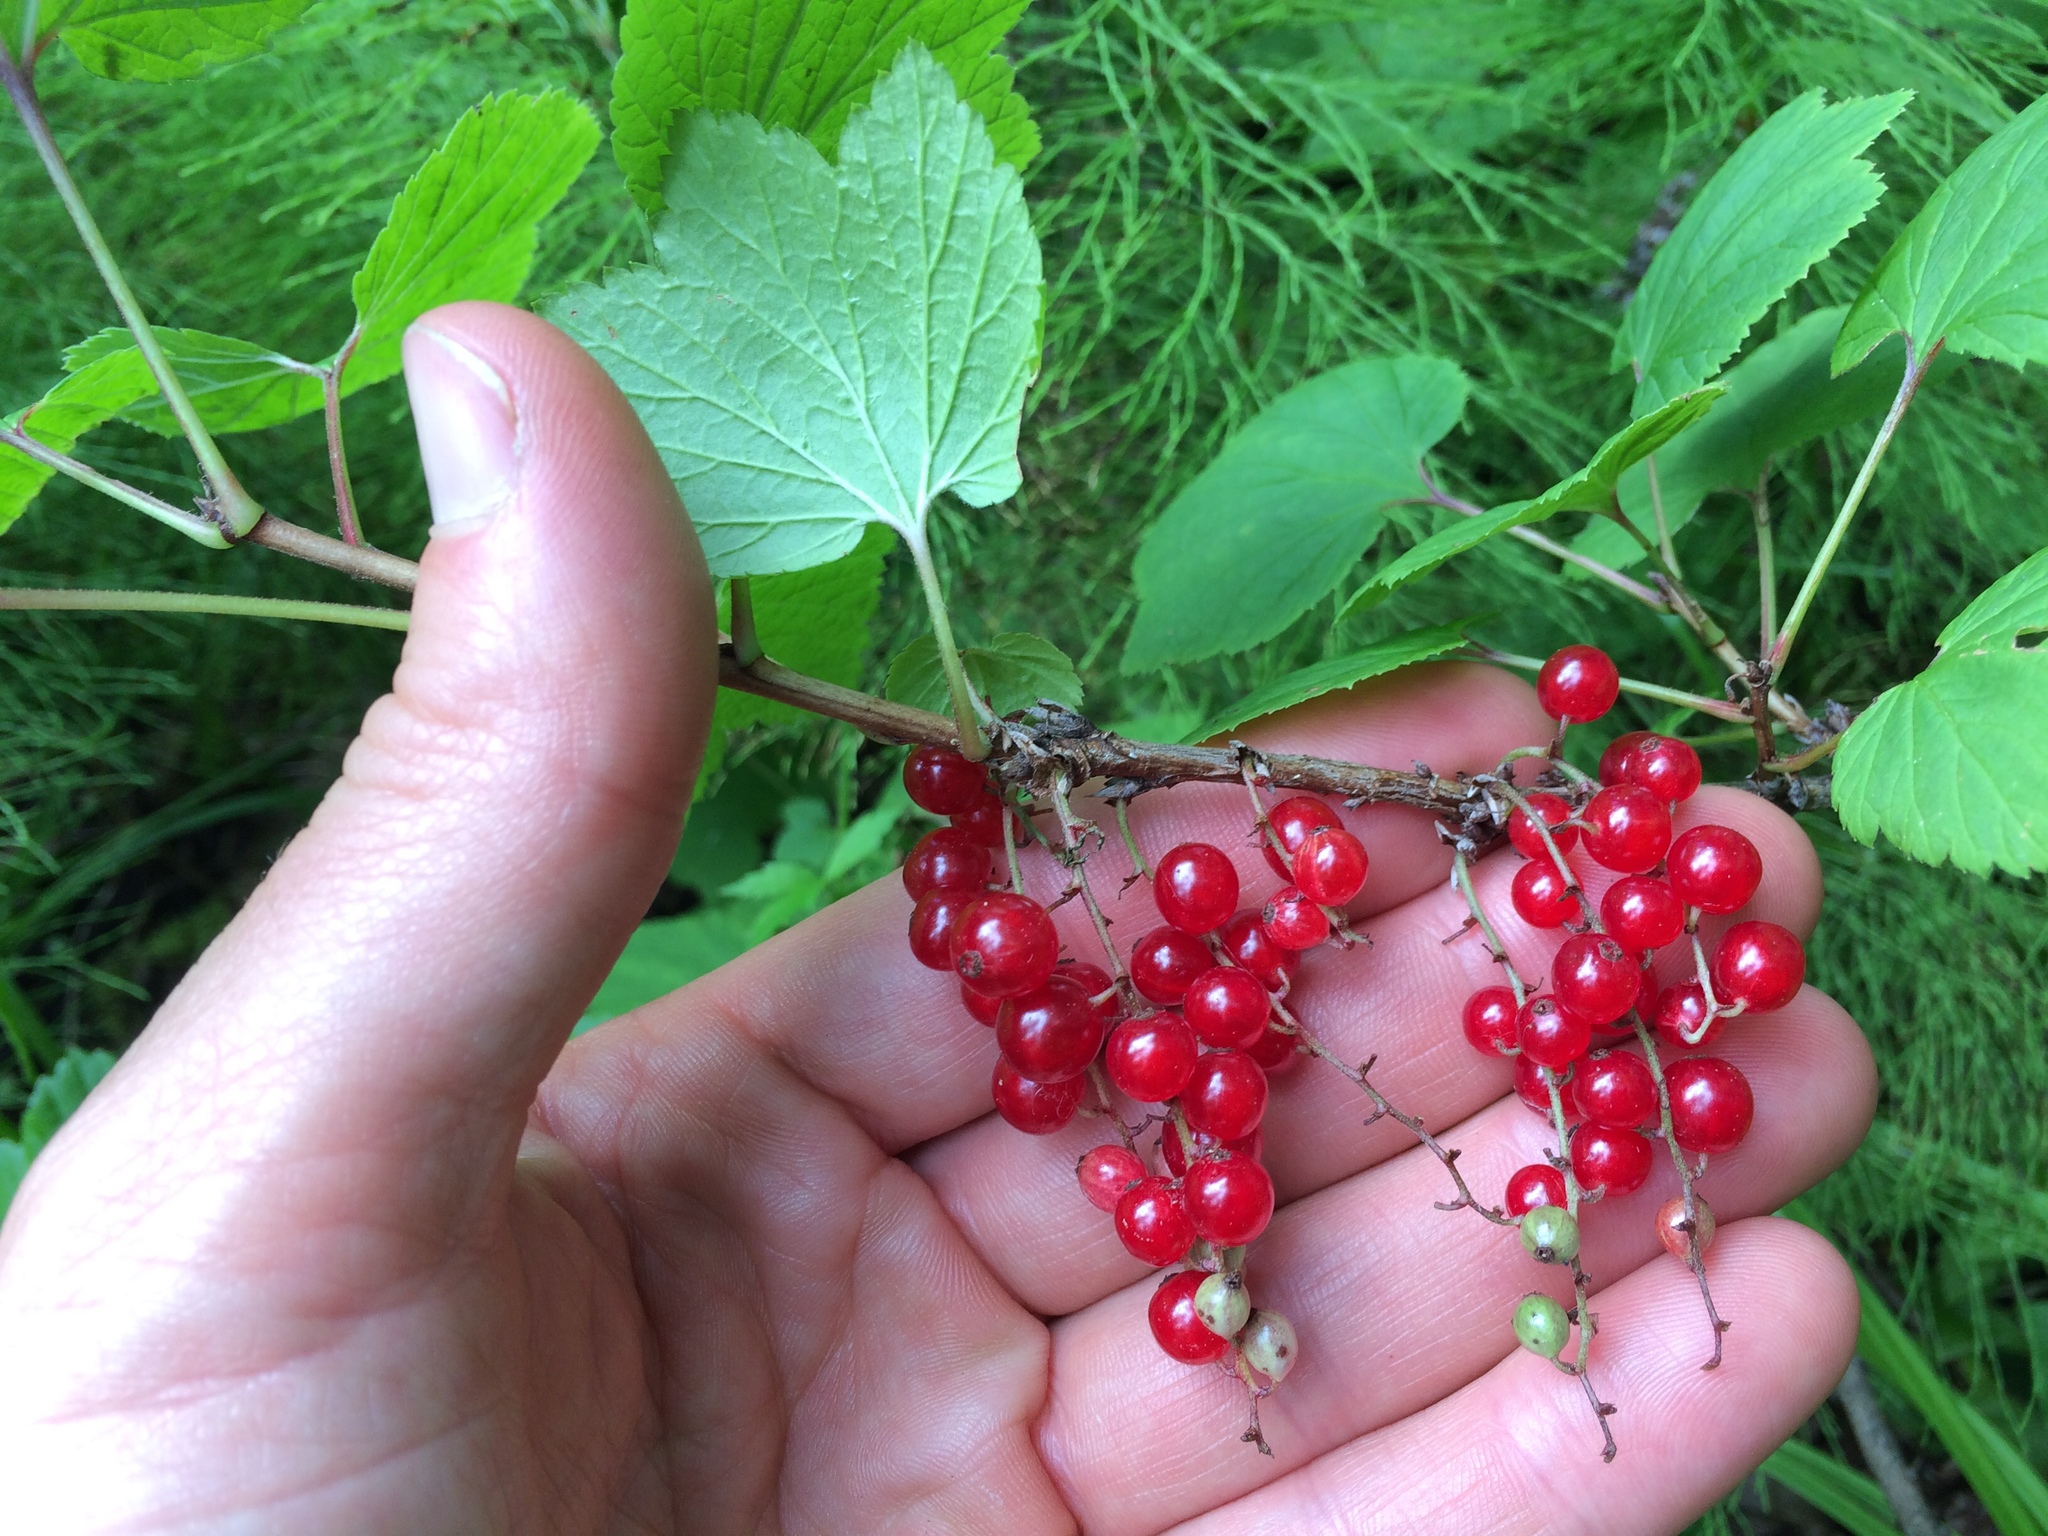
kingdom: Plantae
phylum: Tracheophyta
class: Magnoliopsida
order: Saxifragales
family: Grossulariaceae
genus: Ribes
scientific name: Ribes triste
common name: Swamp red currant
